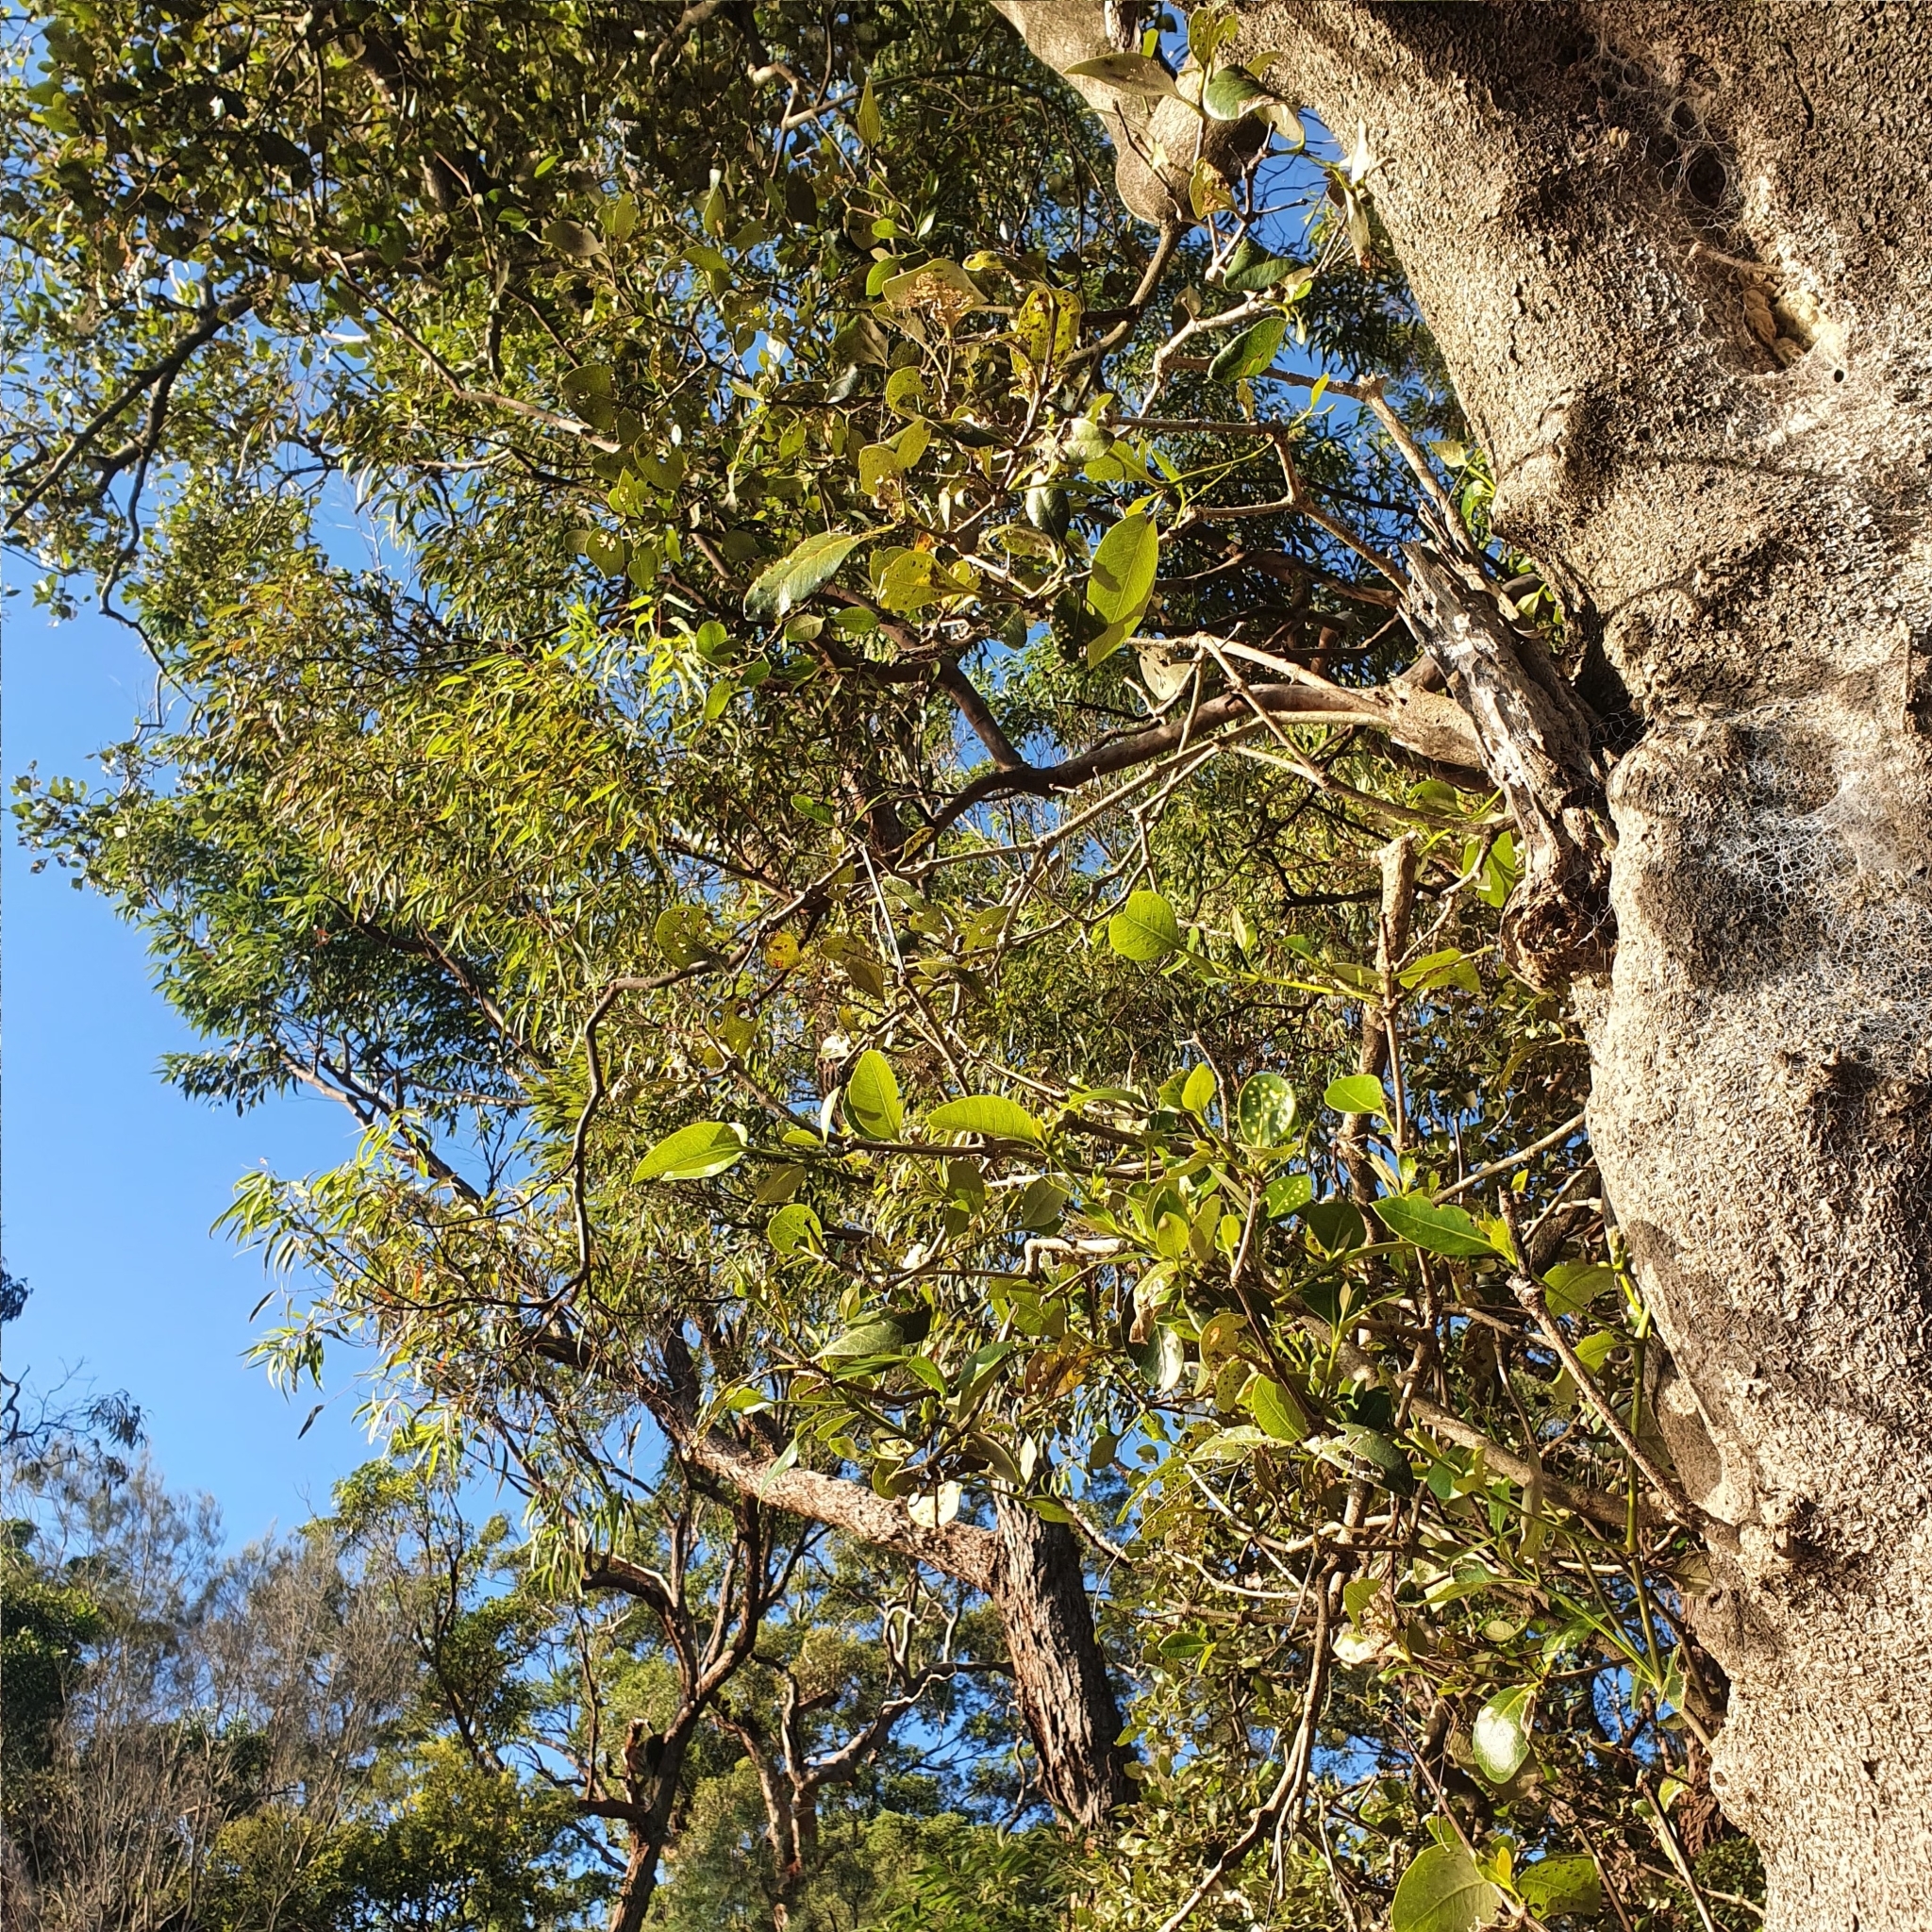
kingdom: Plantae
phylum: Tracheophyta
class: Magnoliopsida
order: Lamiales
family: Acanthaceae
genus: Avicennia
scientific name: Avicennia marina
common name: Gray mangrove
